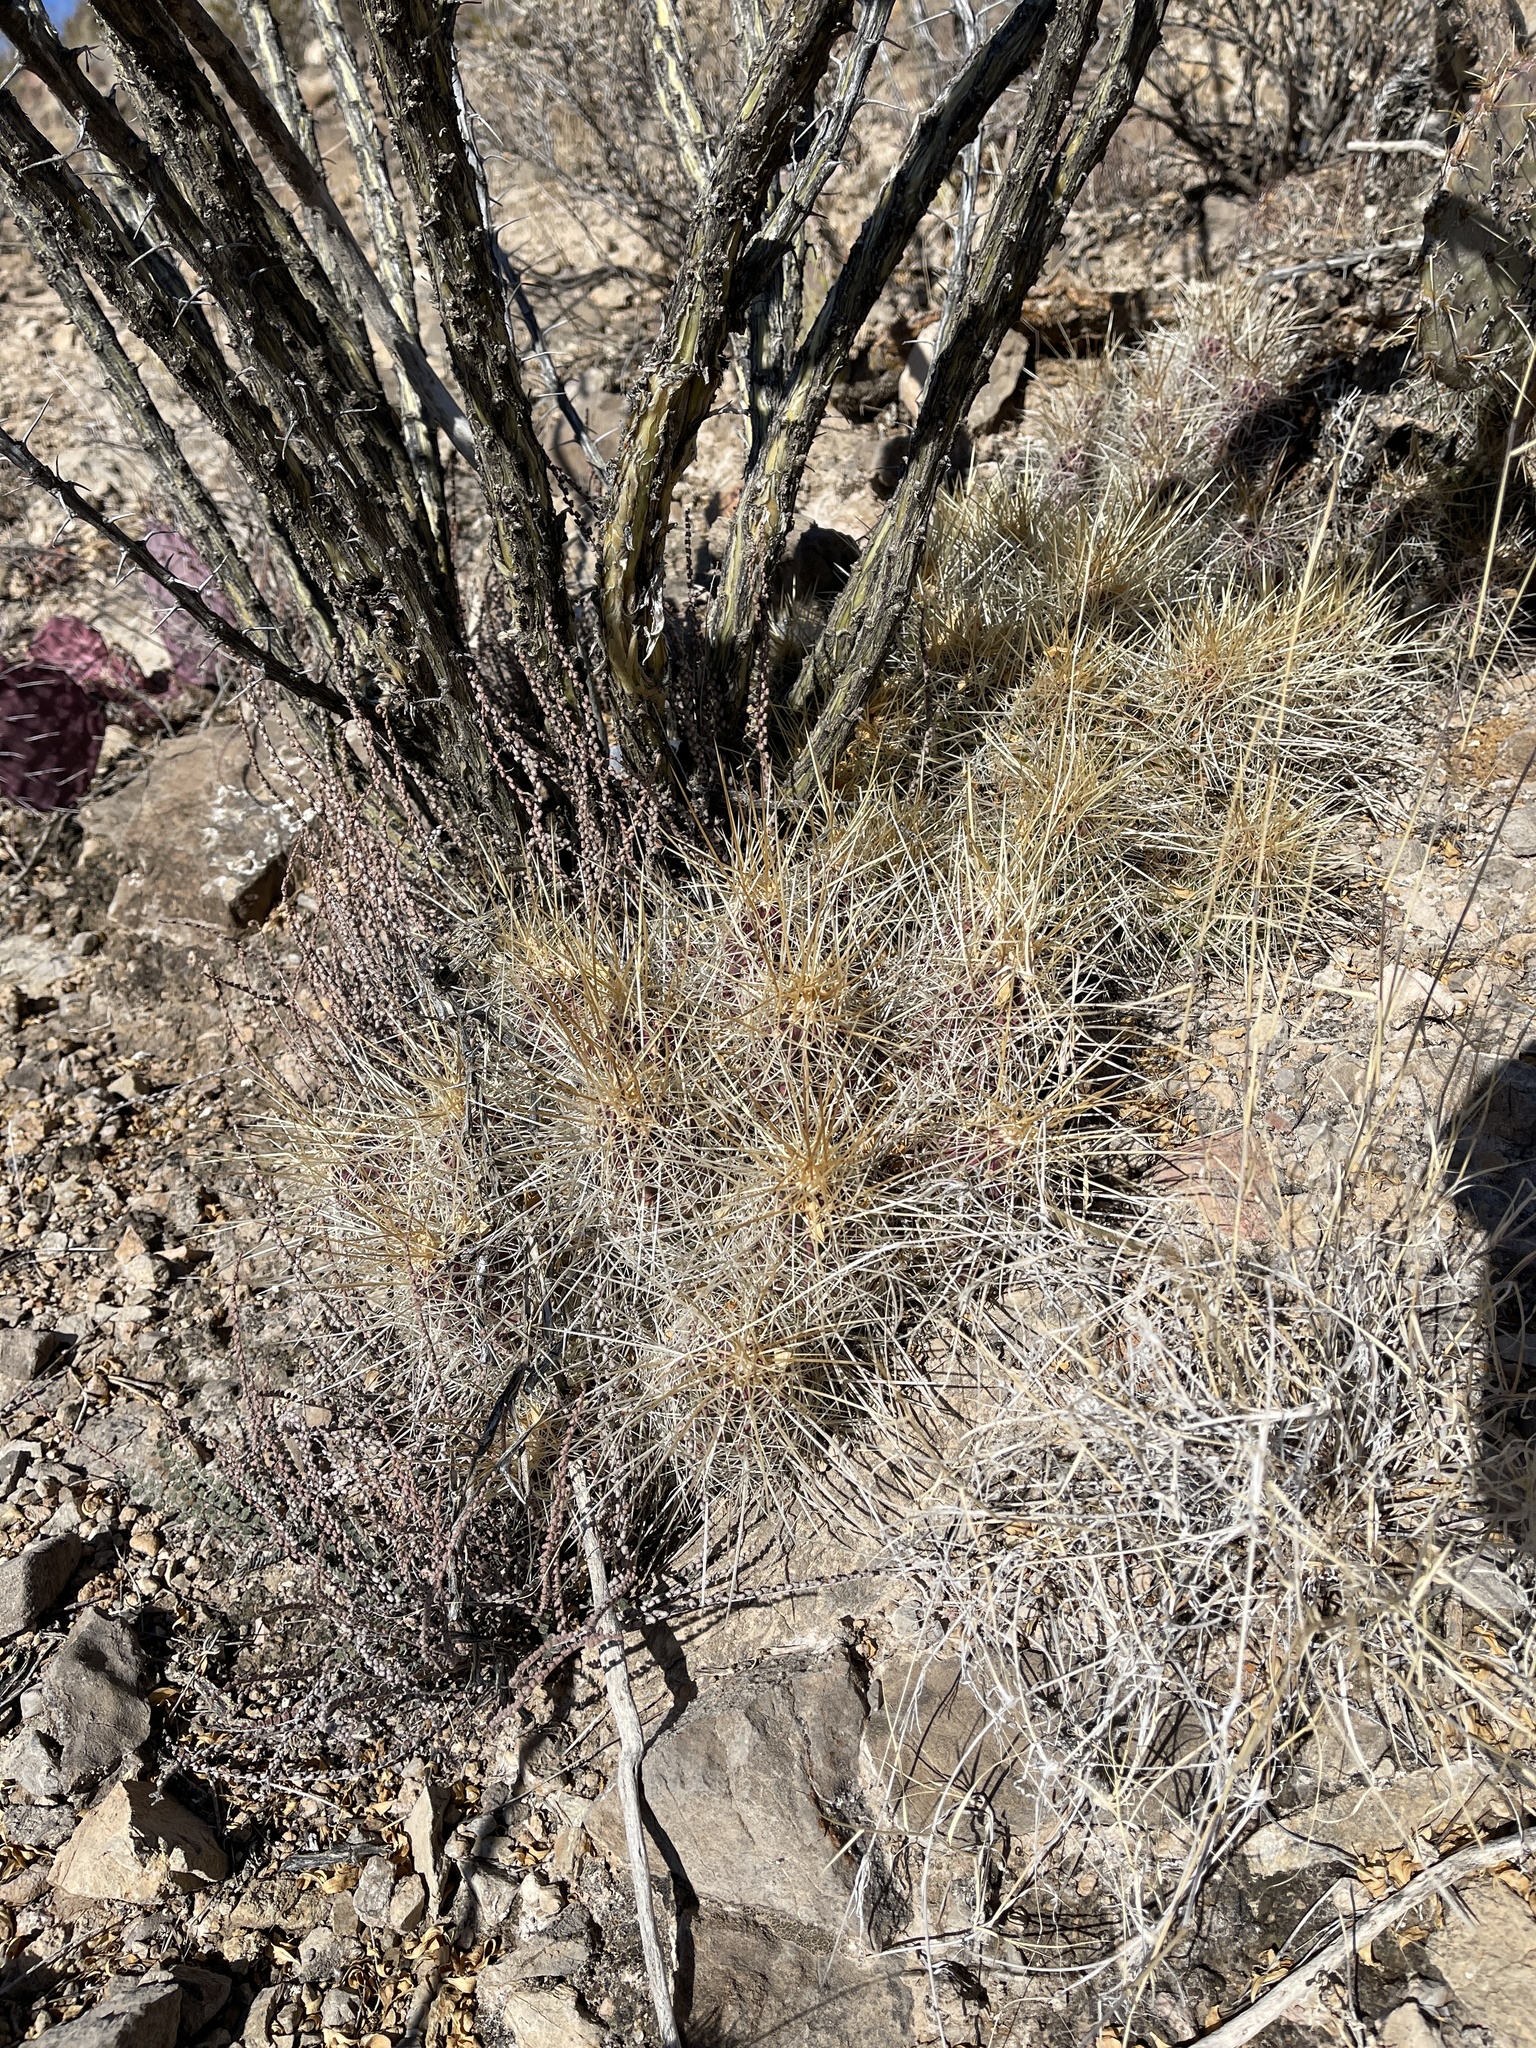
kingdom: Plantae
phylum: Tracheophyta
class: Magnoliopsida
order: Caryophyllales
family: Cactaceae
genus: Echinocereus
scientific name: Echinocereus stramineus
